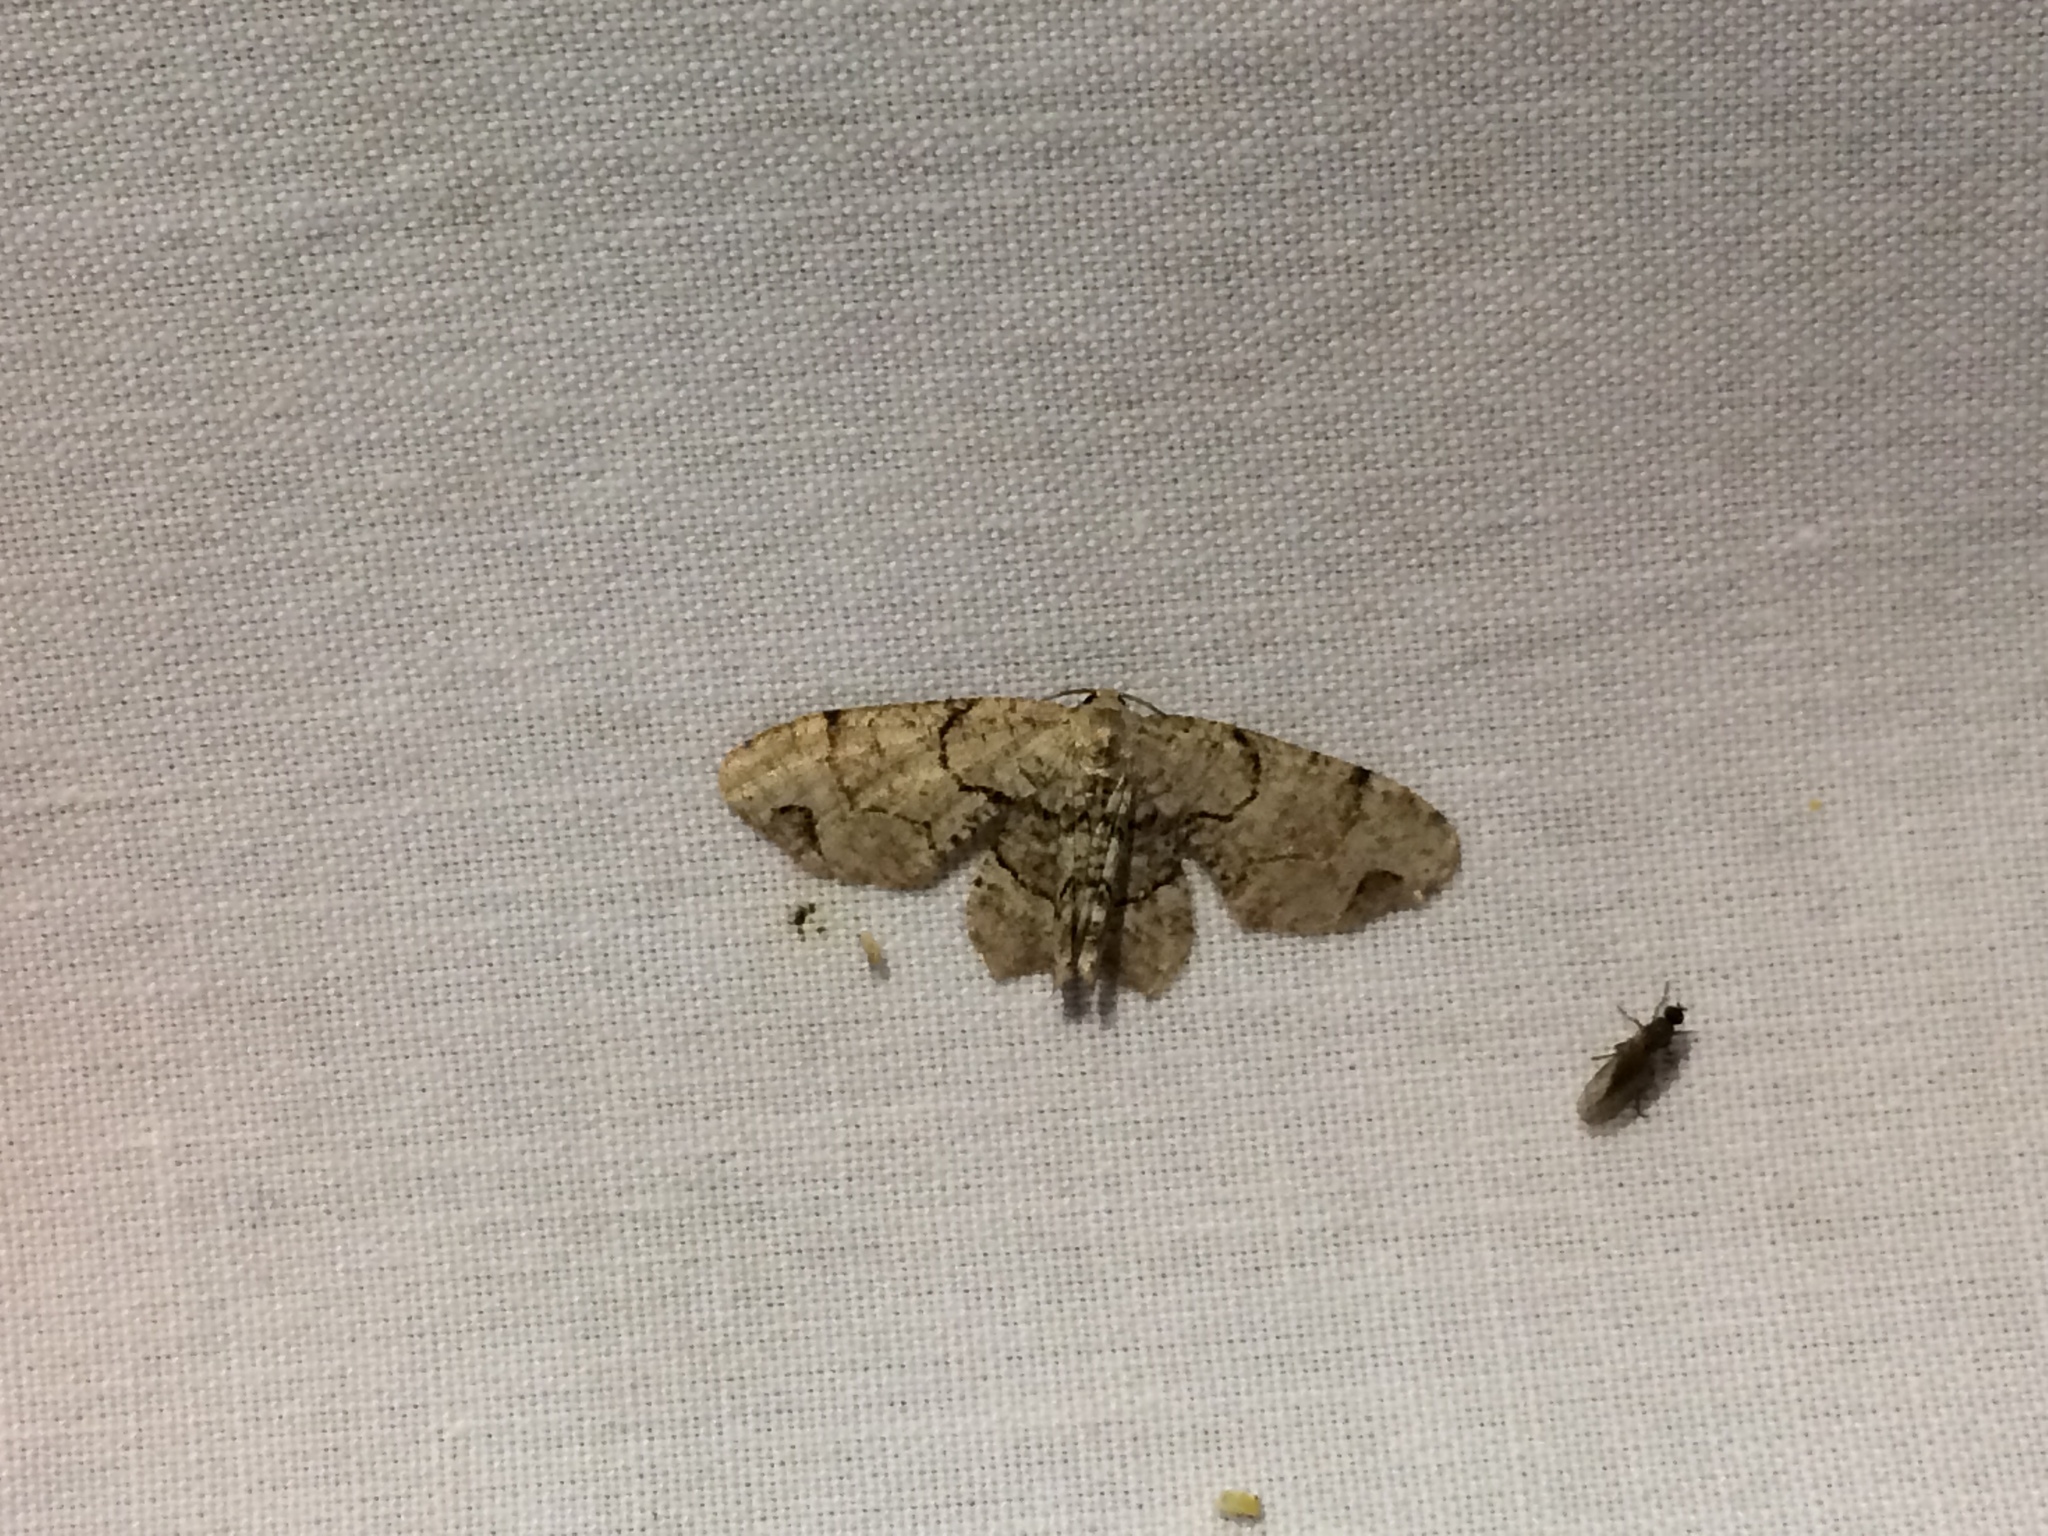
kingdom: Animalia
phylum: Arthropoda
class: Insecta
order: Lepidoptera
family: Uraniidae
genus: Epiplema
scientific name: Epiplema Callizzia amorata
